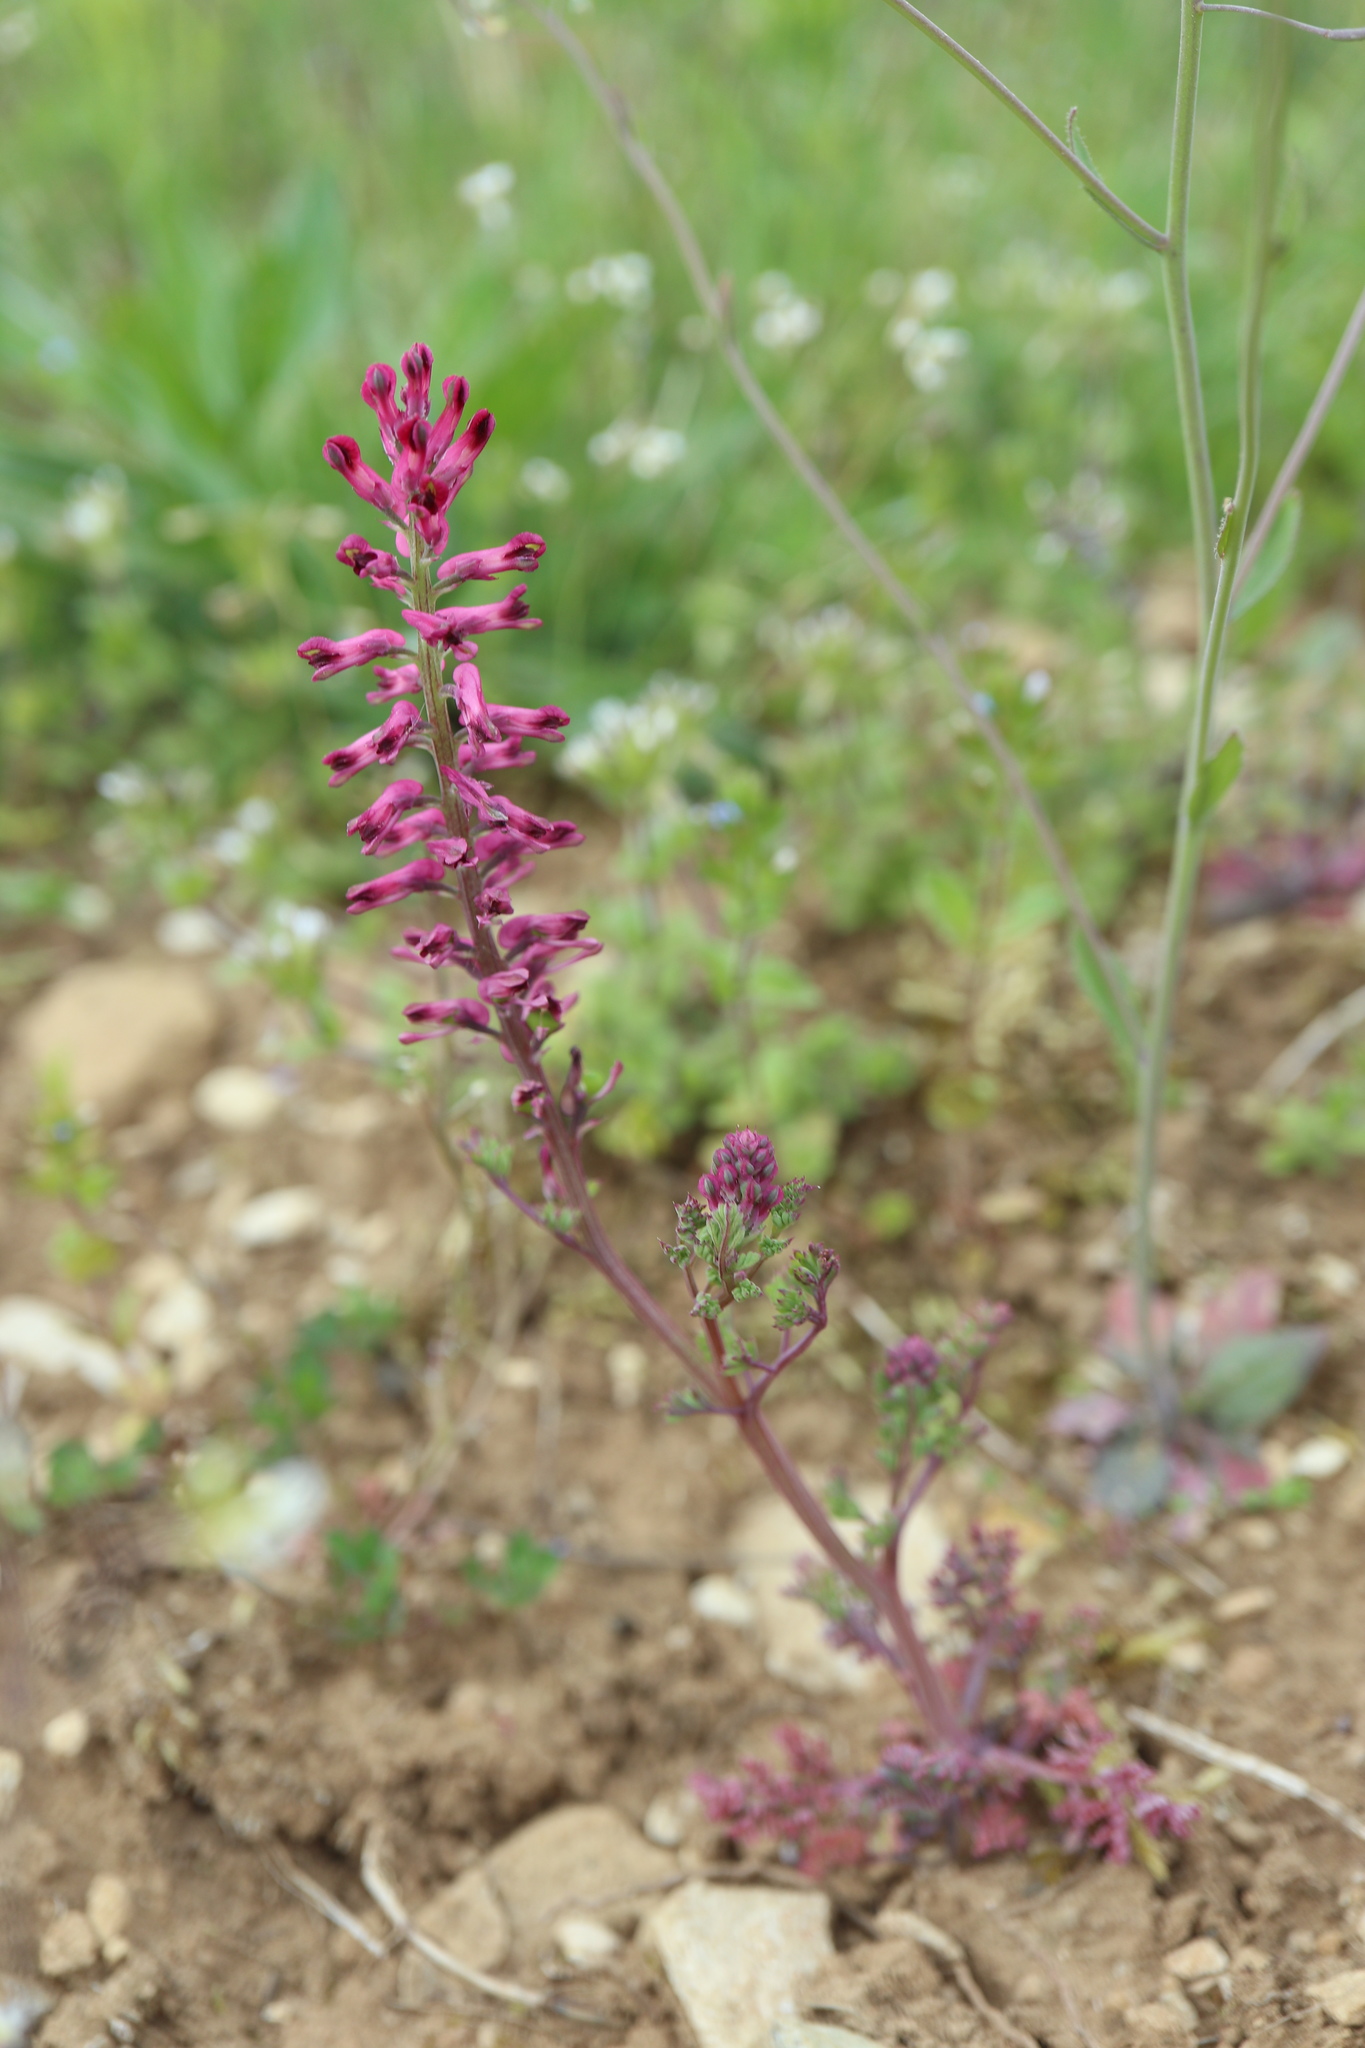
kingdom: Plantae
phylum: Tracheophyta
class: Magnoliopsida
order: Ranunculales
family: Papaveraceae
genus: Fumaria
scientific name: Fumaria officinalis
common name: Common fumitory
